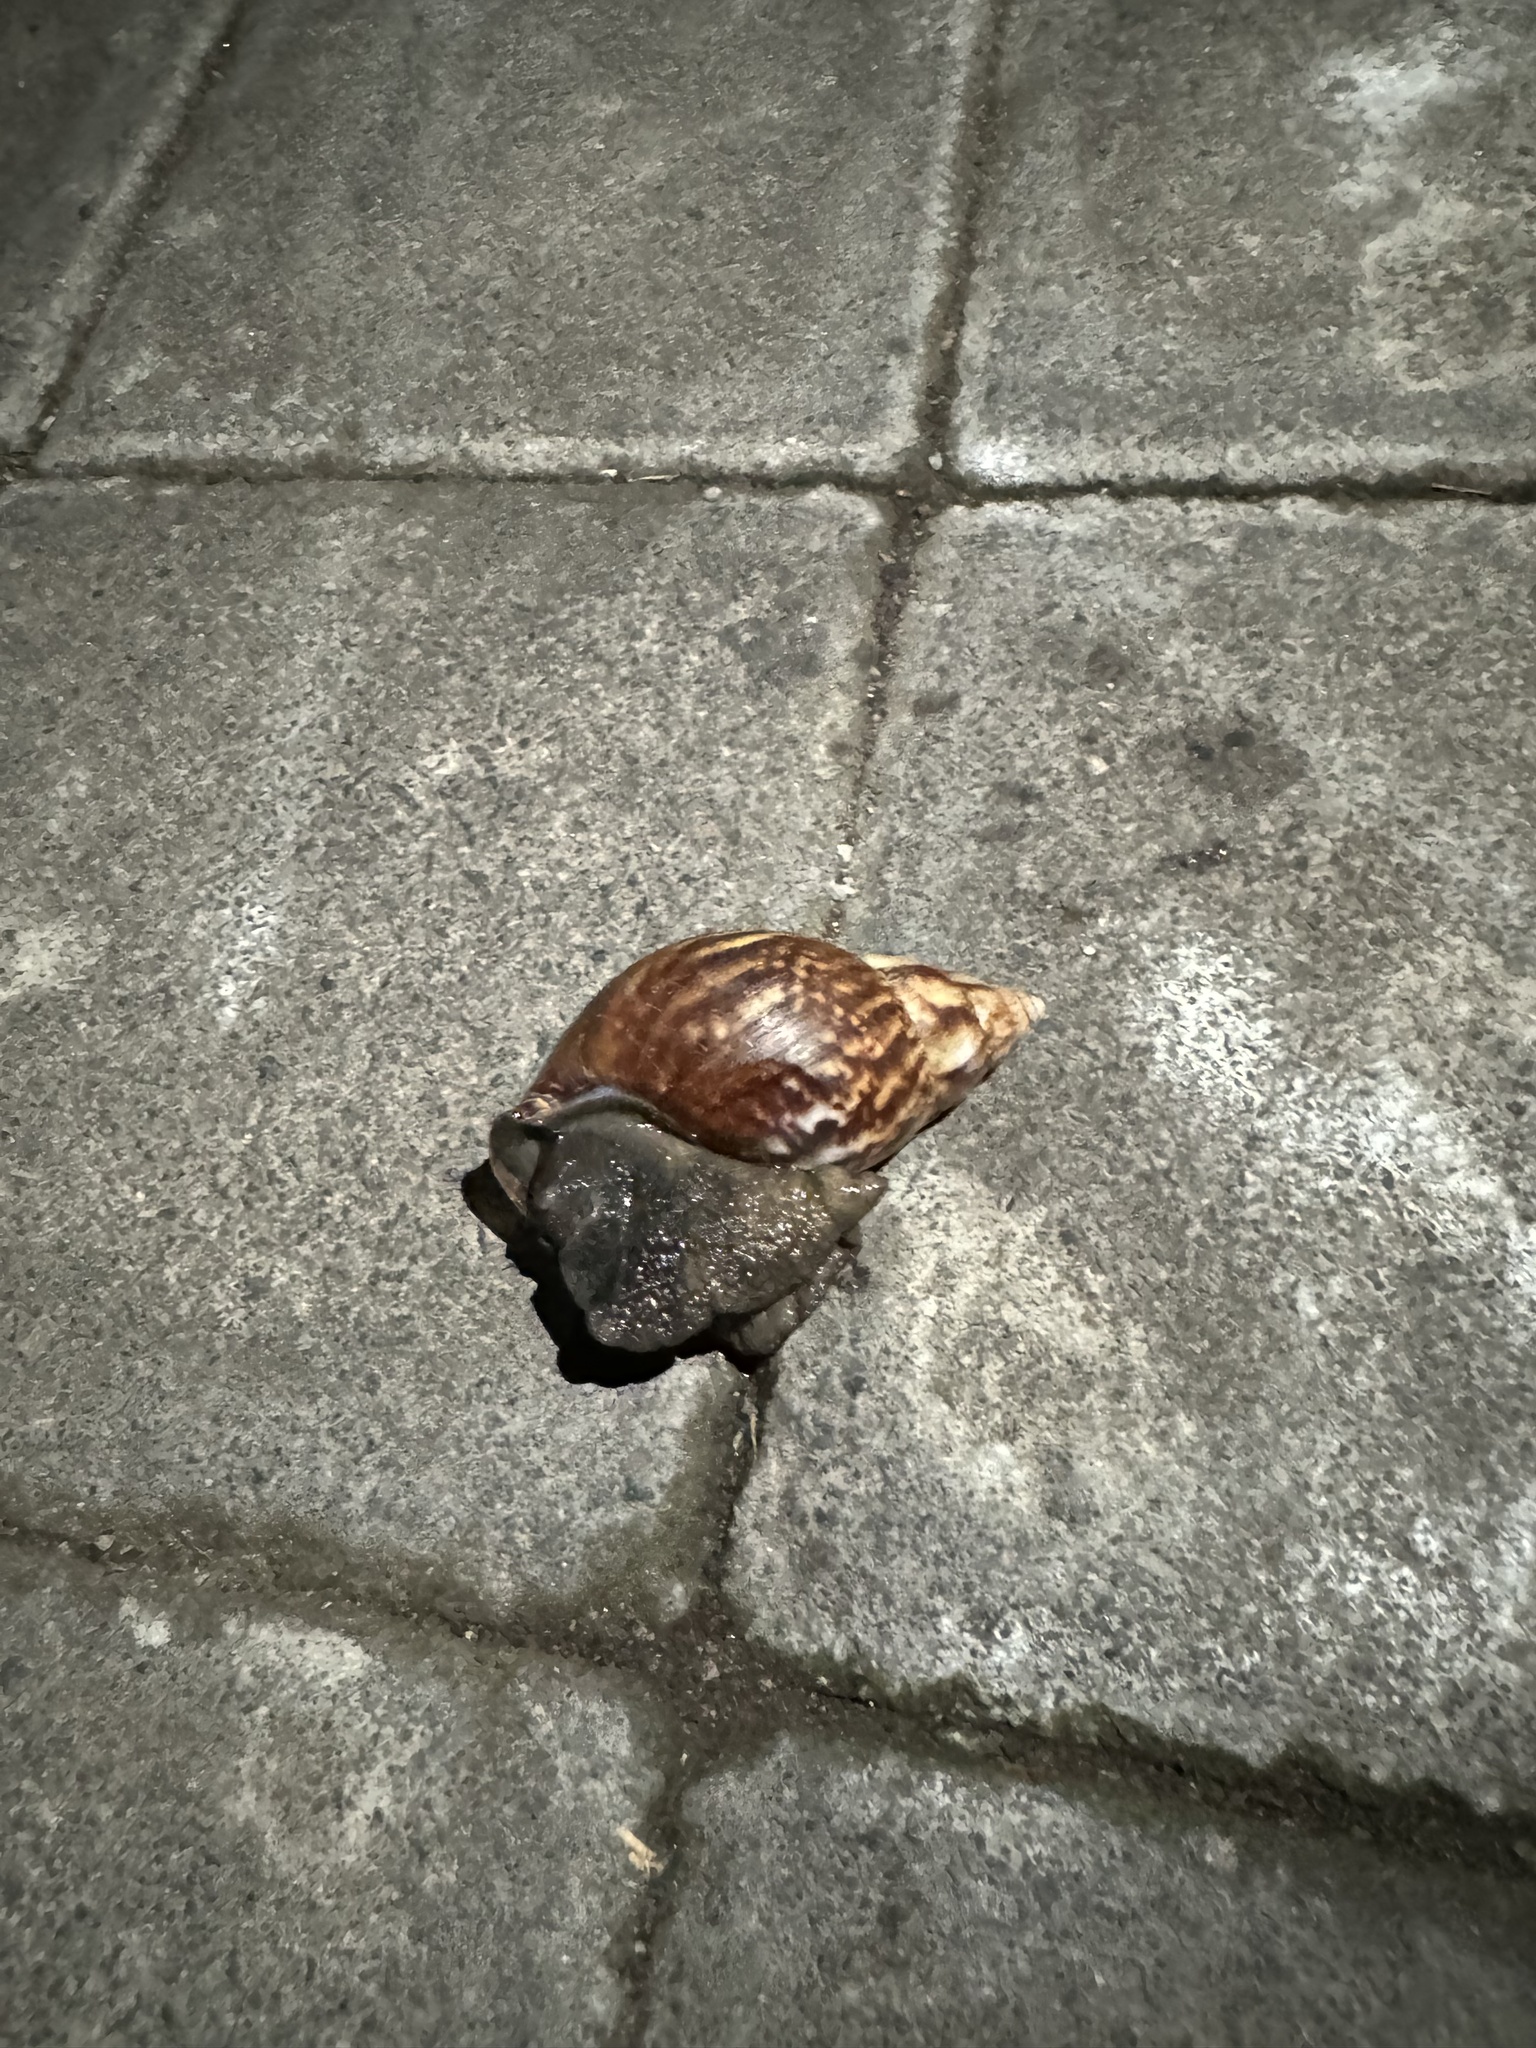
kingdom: Animalia
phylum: Mollusca
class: Gastropoda
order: Stylommatophora
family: Achatinidae
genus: Lissachatina
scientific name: Lissachatina fulica
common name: Giant african snail
